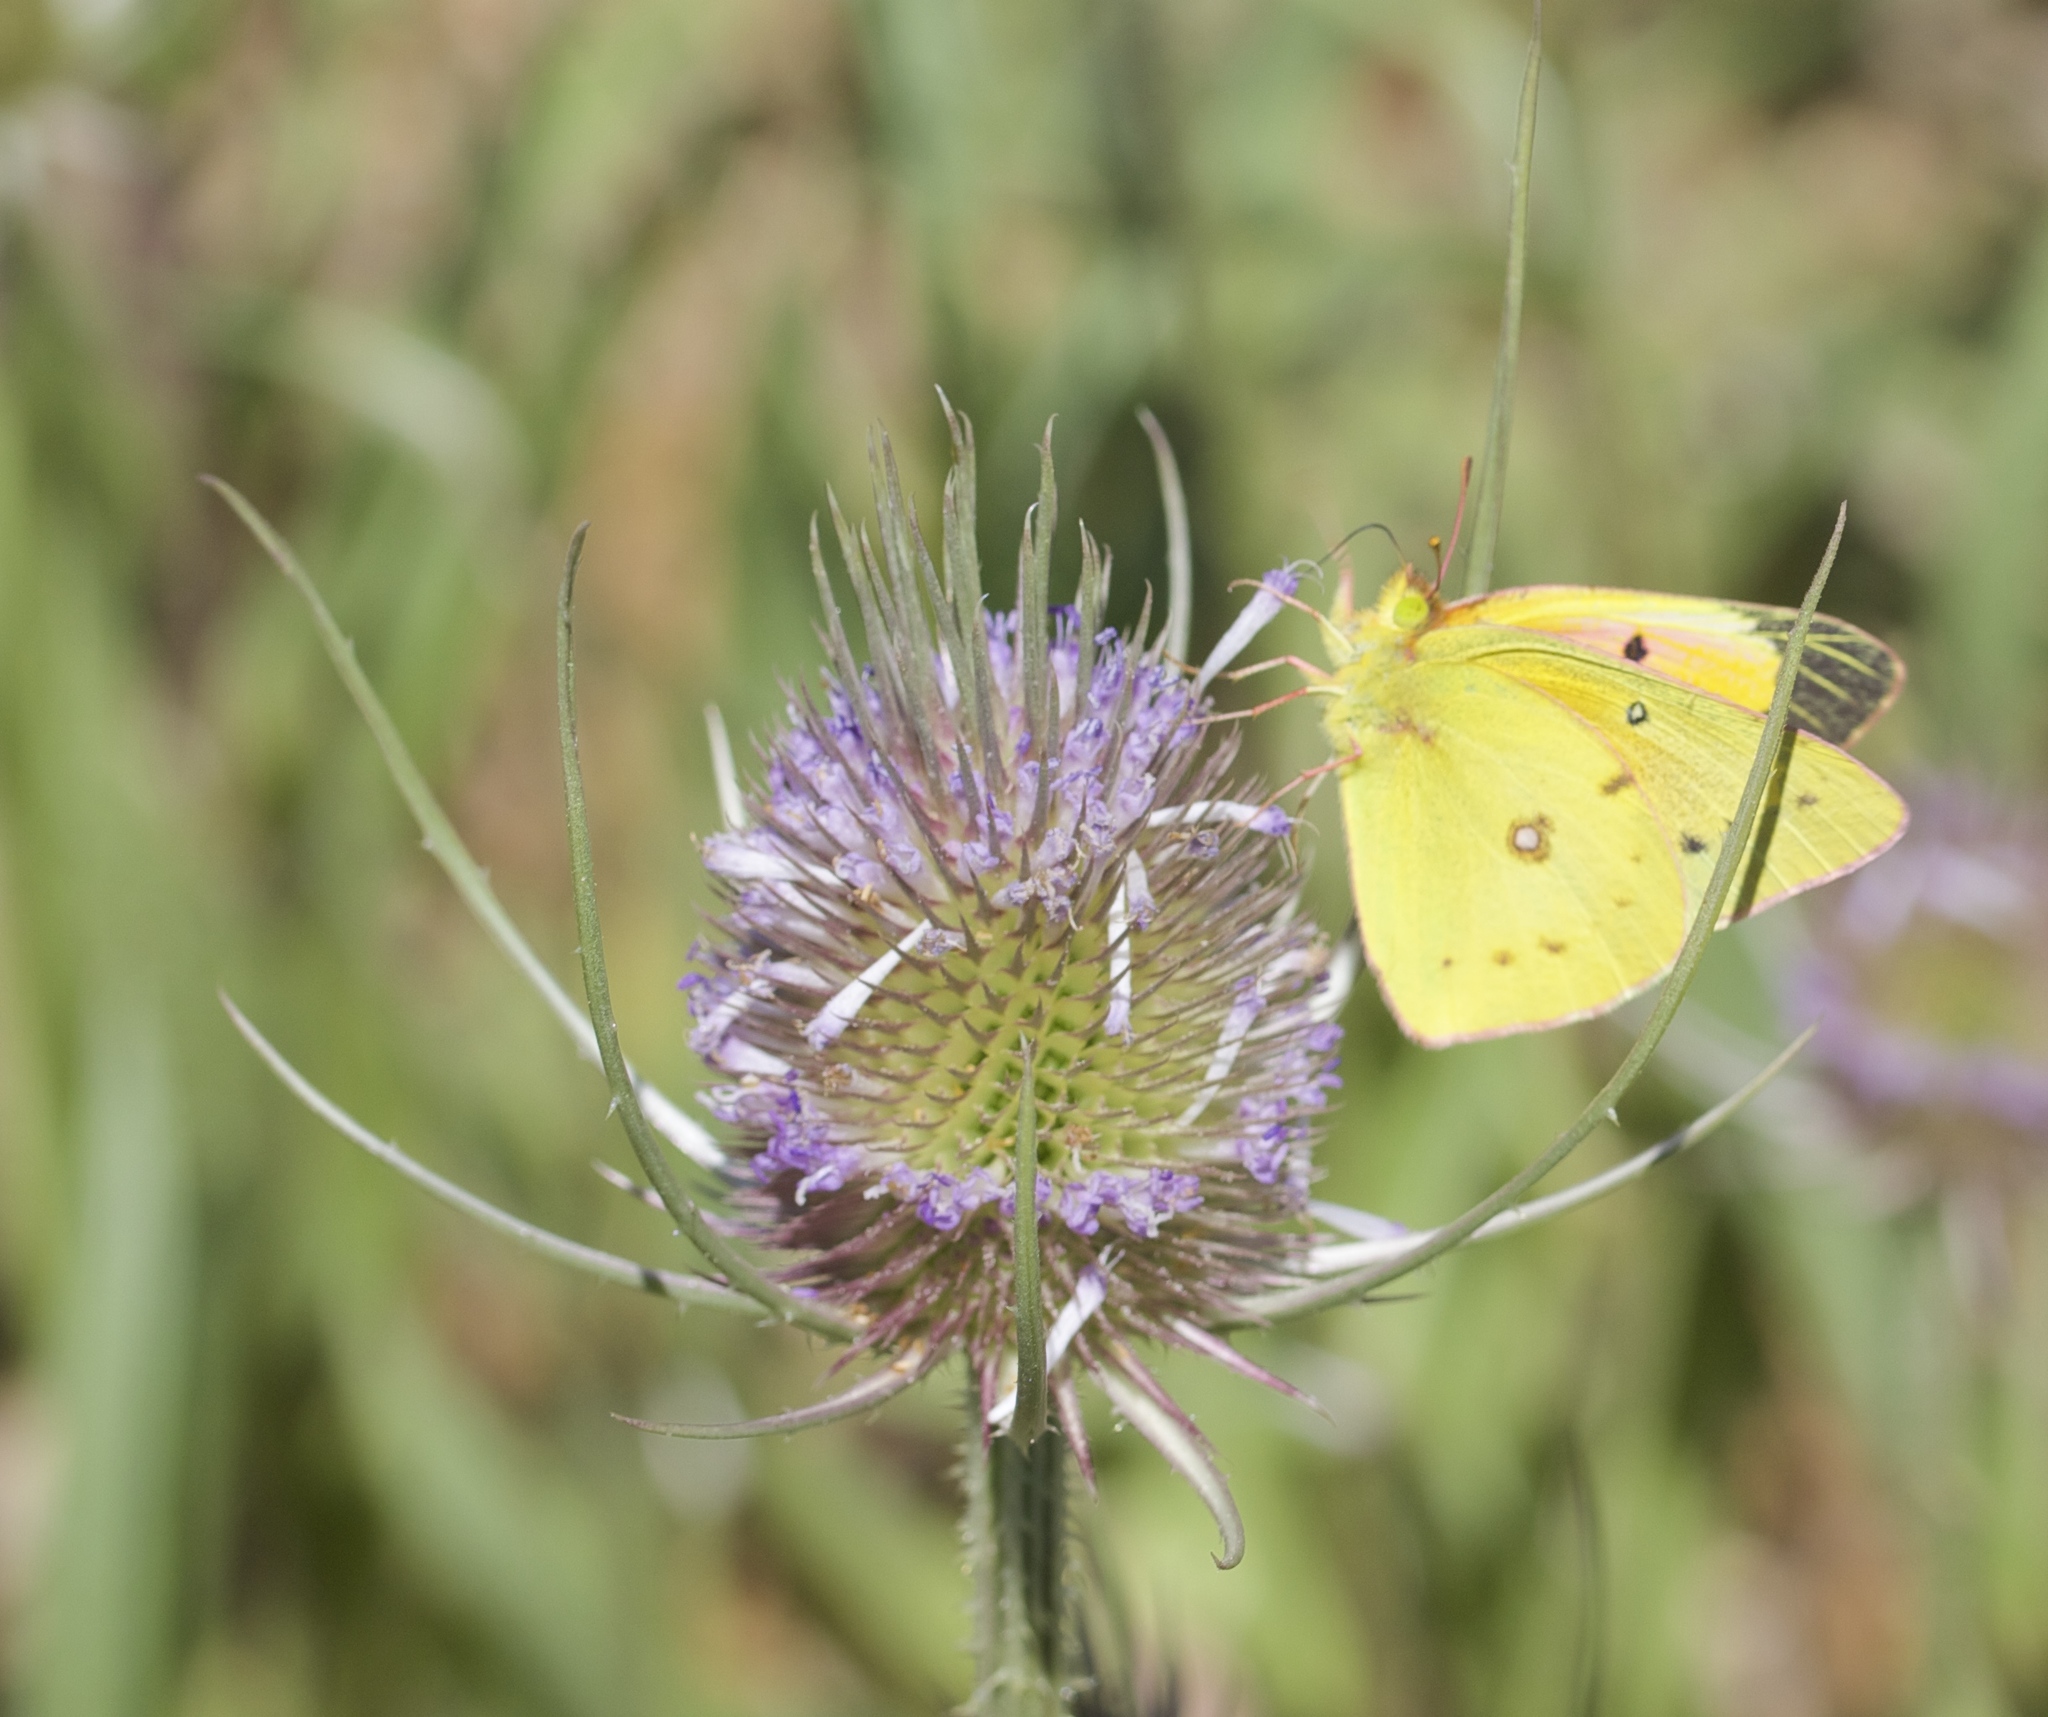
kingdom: Animalia
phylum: Arthropoda
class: Insecta
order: Lepidoptera
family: Pieridae
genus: Colias
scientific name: Colias eurytheme
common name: Alfalfa butterfly
